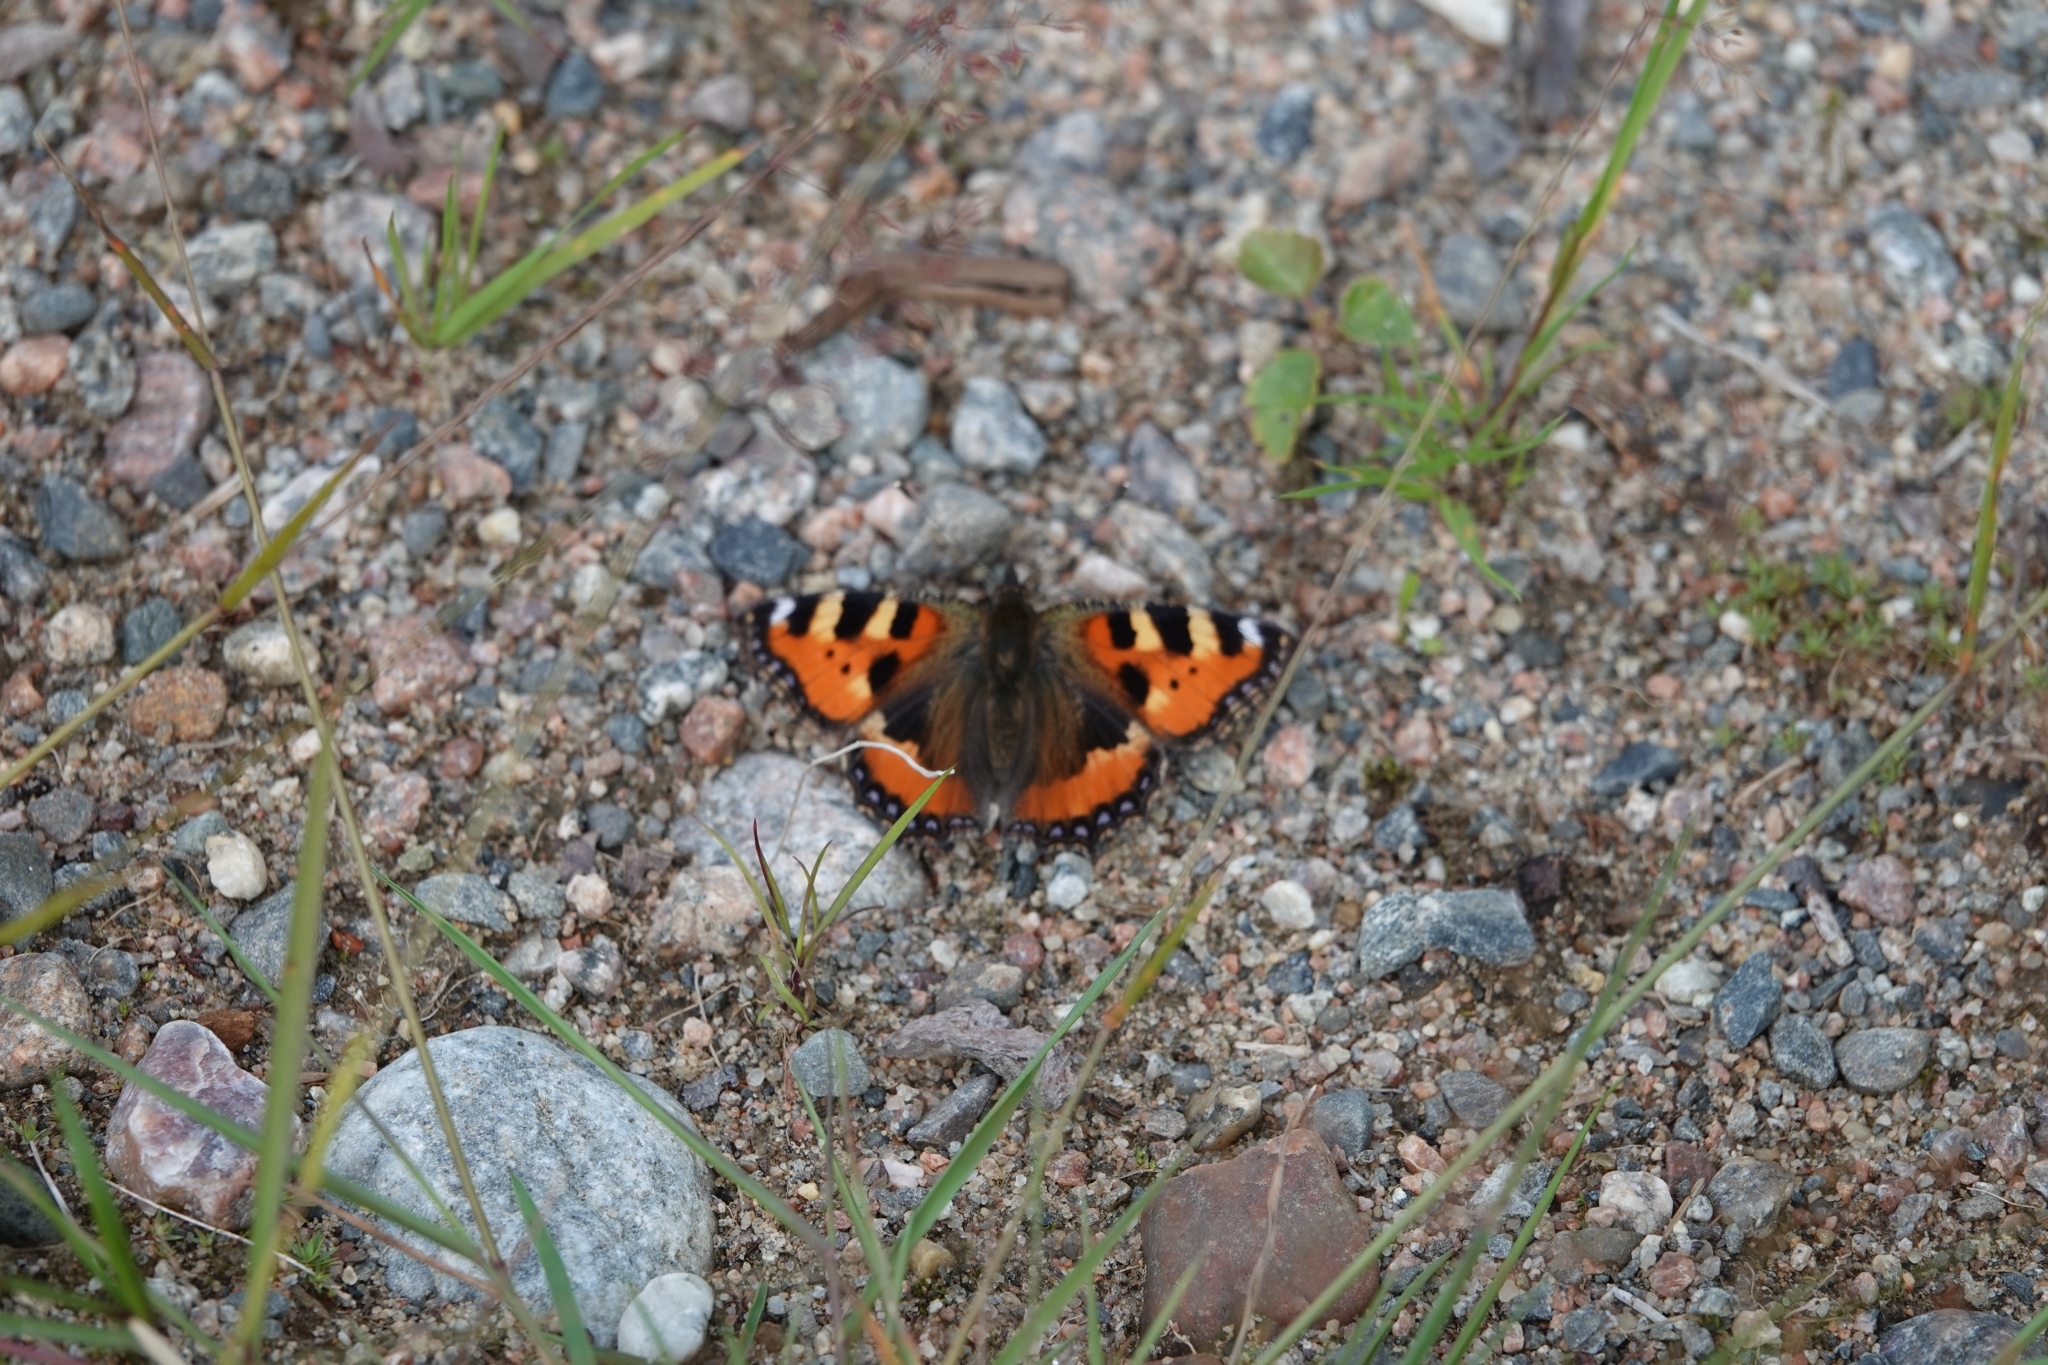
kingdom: Animalia
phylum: Arthropoda
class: Insecta
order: Lepidoptera
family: Nymphalidae
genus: Aglais
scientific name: Aglais urticae
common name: Small tortoiseshell
